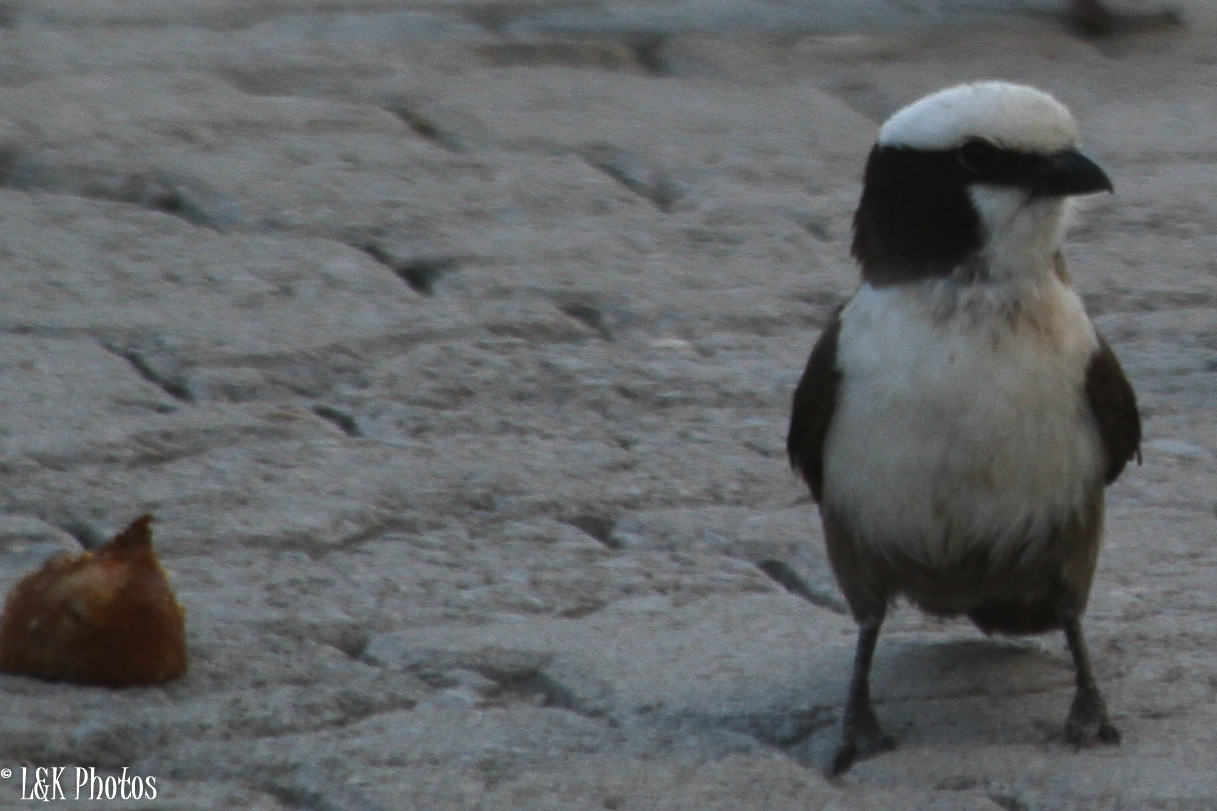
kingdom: Animalia
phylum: Chordata
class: Aves
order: Passeriformes
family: Laniidae
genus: Eurocephalus
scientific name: Eurocephalus anguitimens
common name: Southern white-crowned shrike
